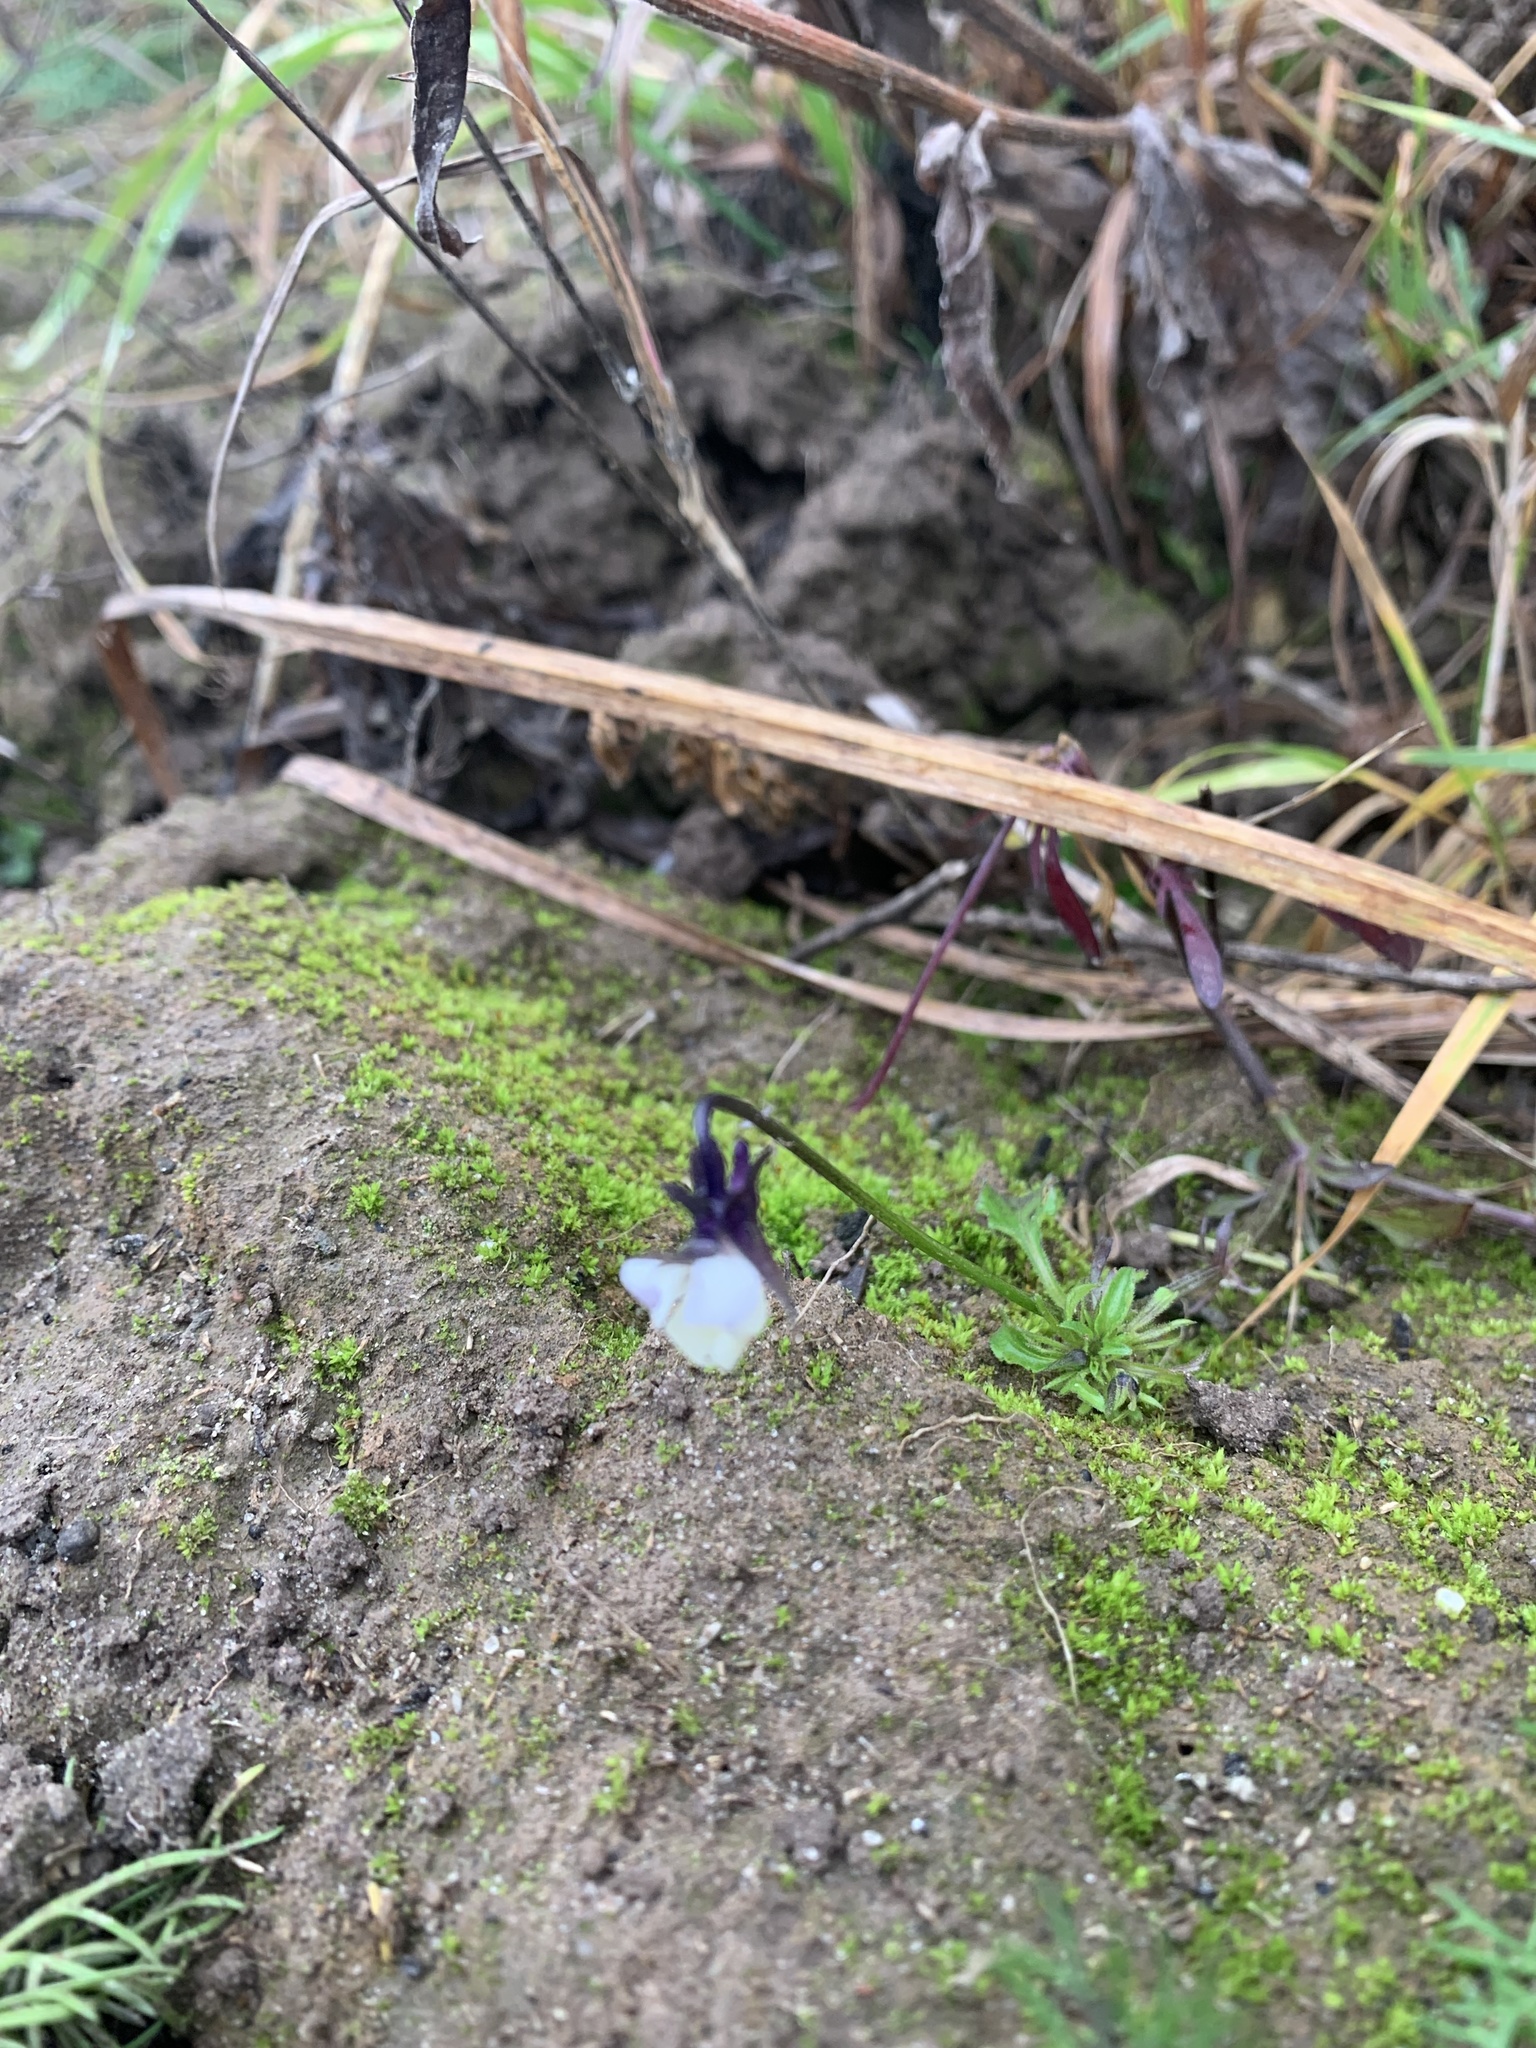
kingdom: Plantae
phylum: Tracheophyta
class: Magnoliopsida
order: Malpighiales
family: Violaceae
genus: Viola
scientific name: Viola arvensis
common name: Field pansy
